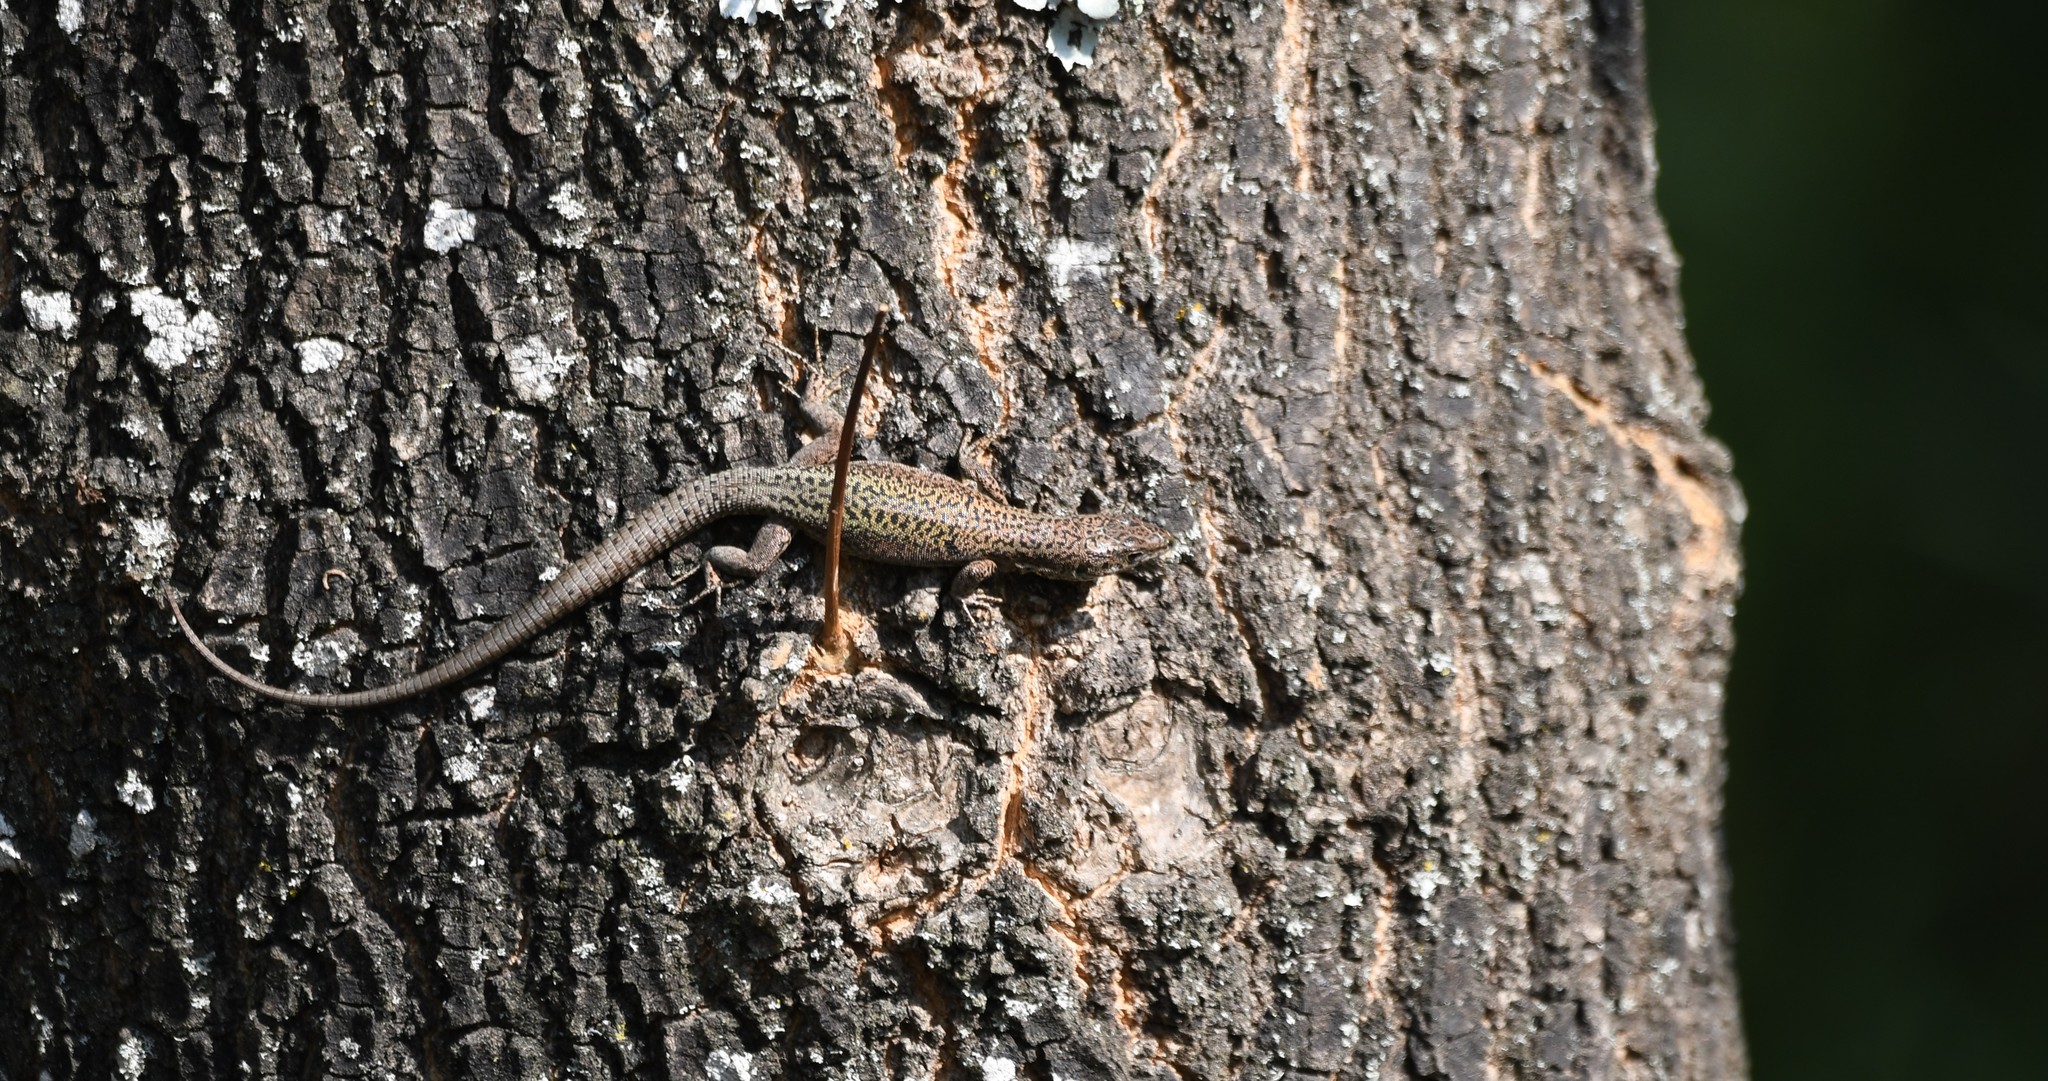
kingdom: Animalia
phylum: Chordata
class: Squamata
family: Lacertidae
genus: Podarcis
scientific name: Podarcis bocagei
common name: Bocage's wall lizard
